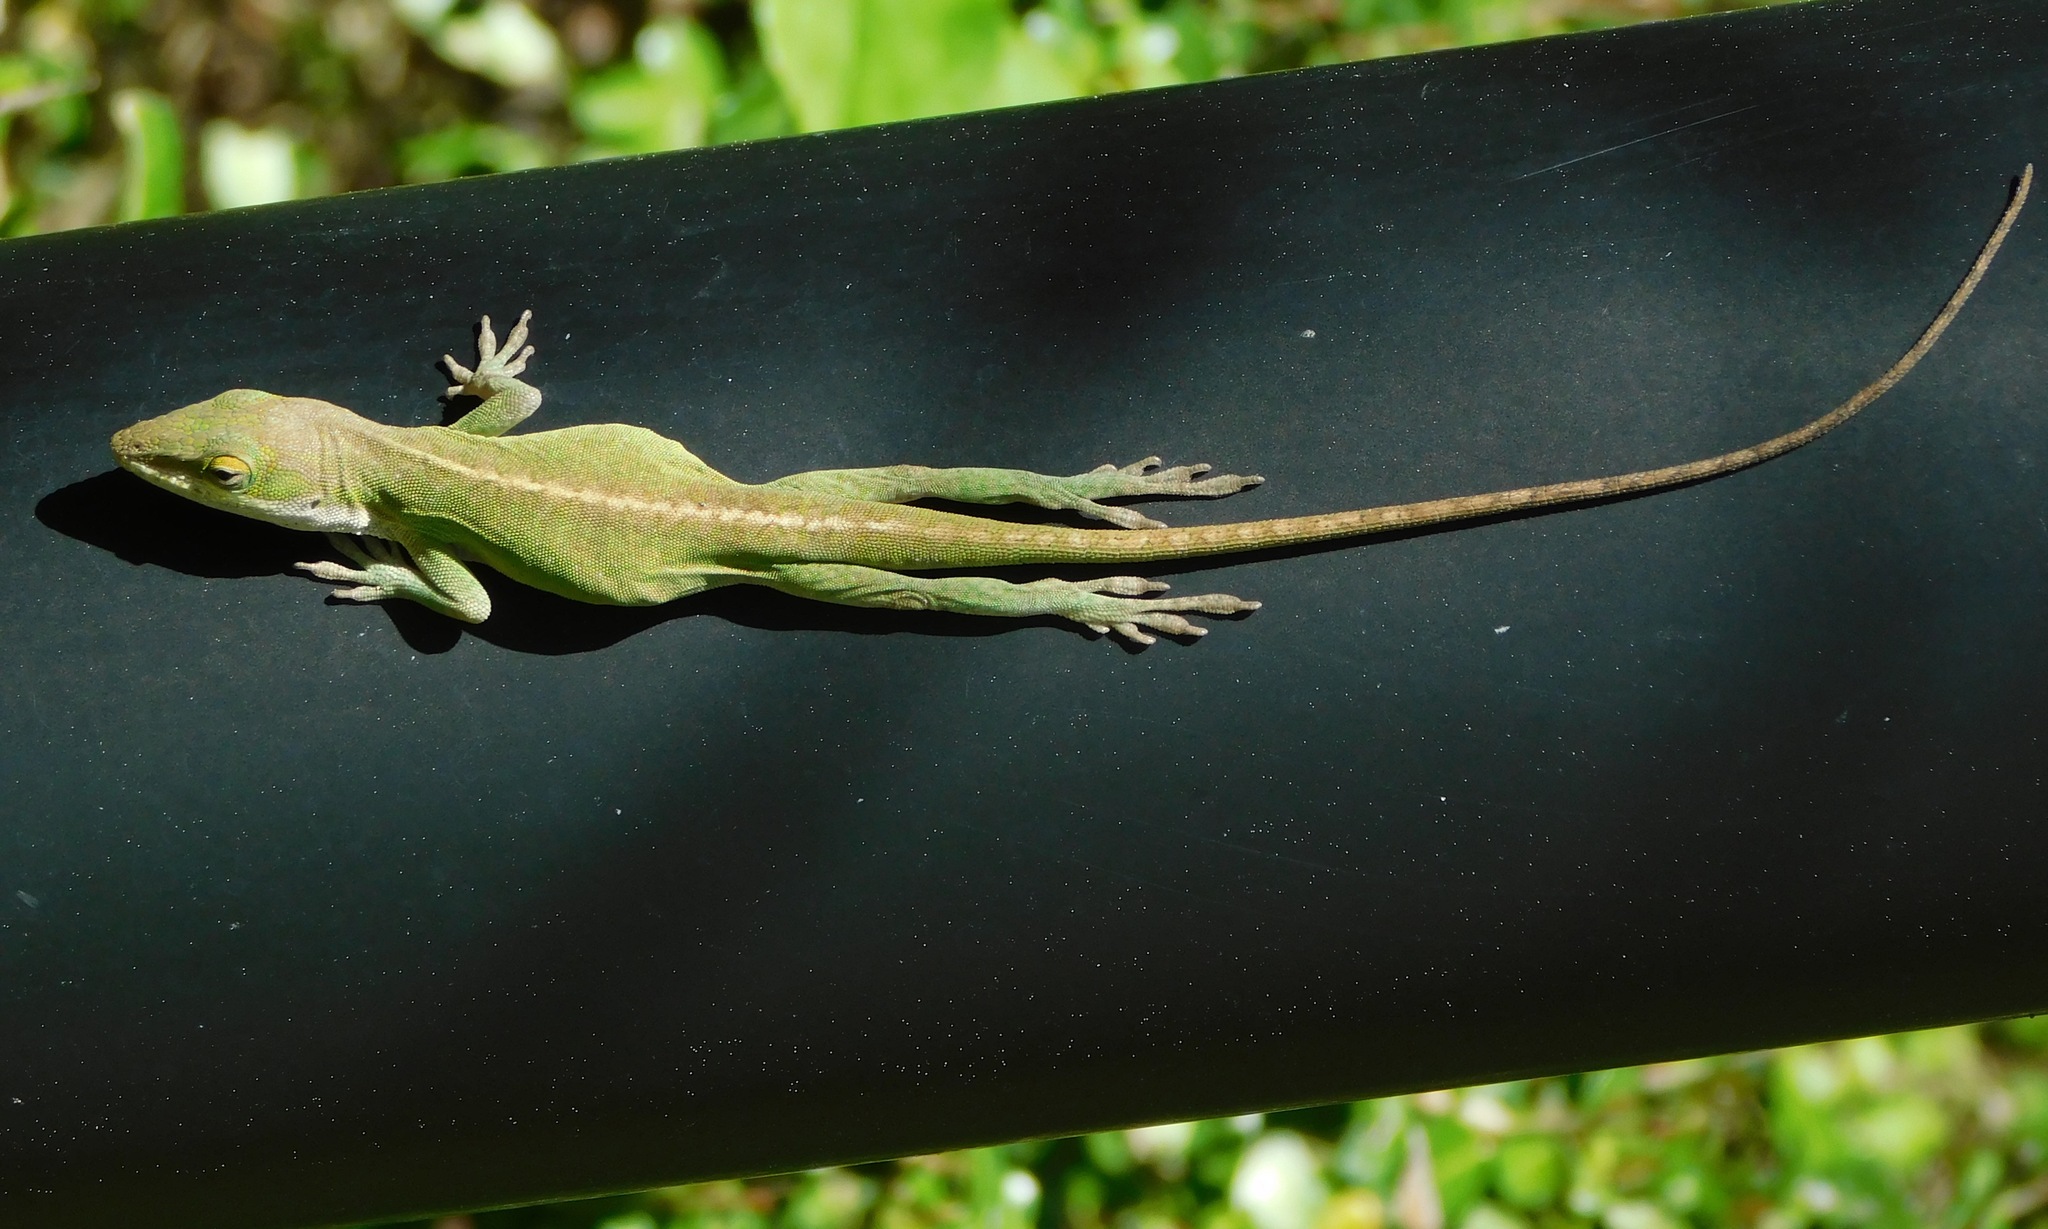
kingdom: Animalia
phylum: Chordata
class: Squamata
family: Dactyloidae
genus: Anolis
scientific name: Anolis carolinensis
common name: Green anole
